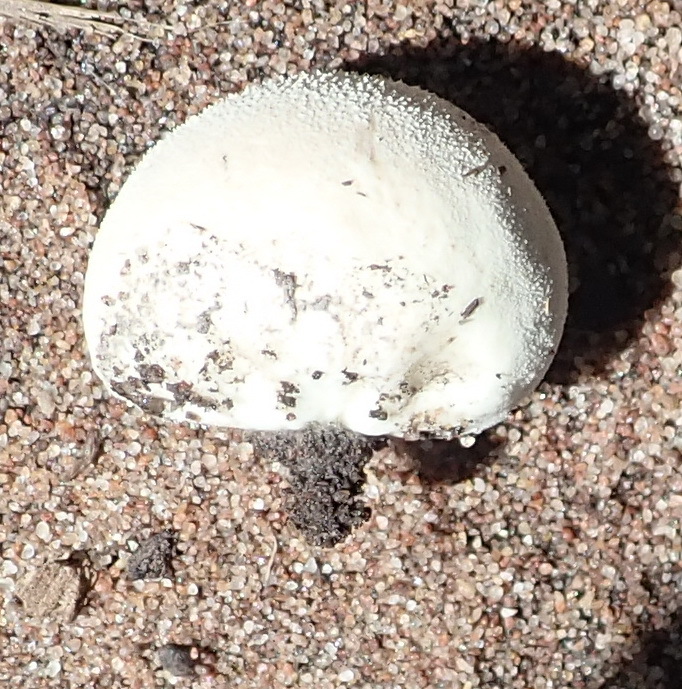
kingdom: Fungi
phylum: Basidiomycota
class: Agaricomycetes
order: Agaricales
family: Lycoperdaceae
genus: Lycoperdon
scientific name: Lycoperdon pratense
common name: Meadow puffball
